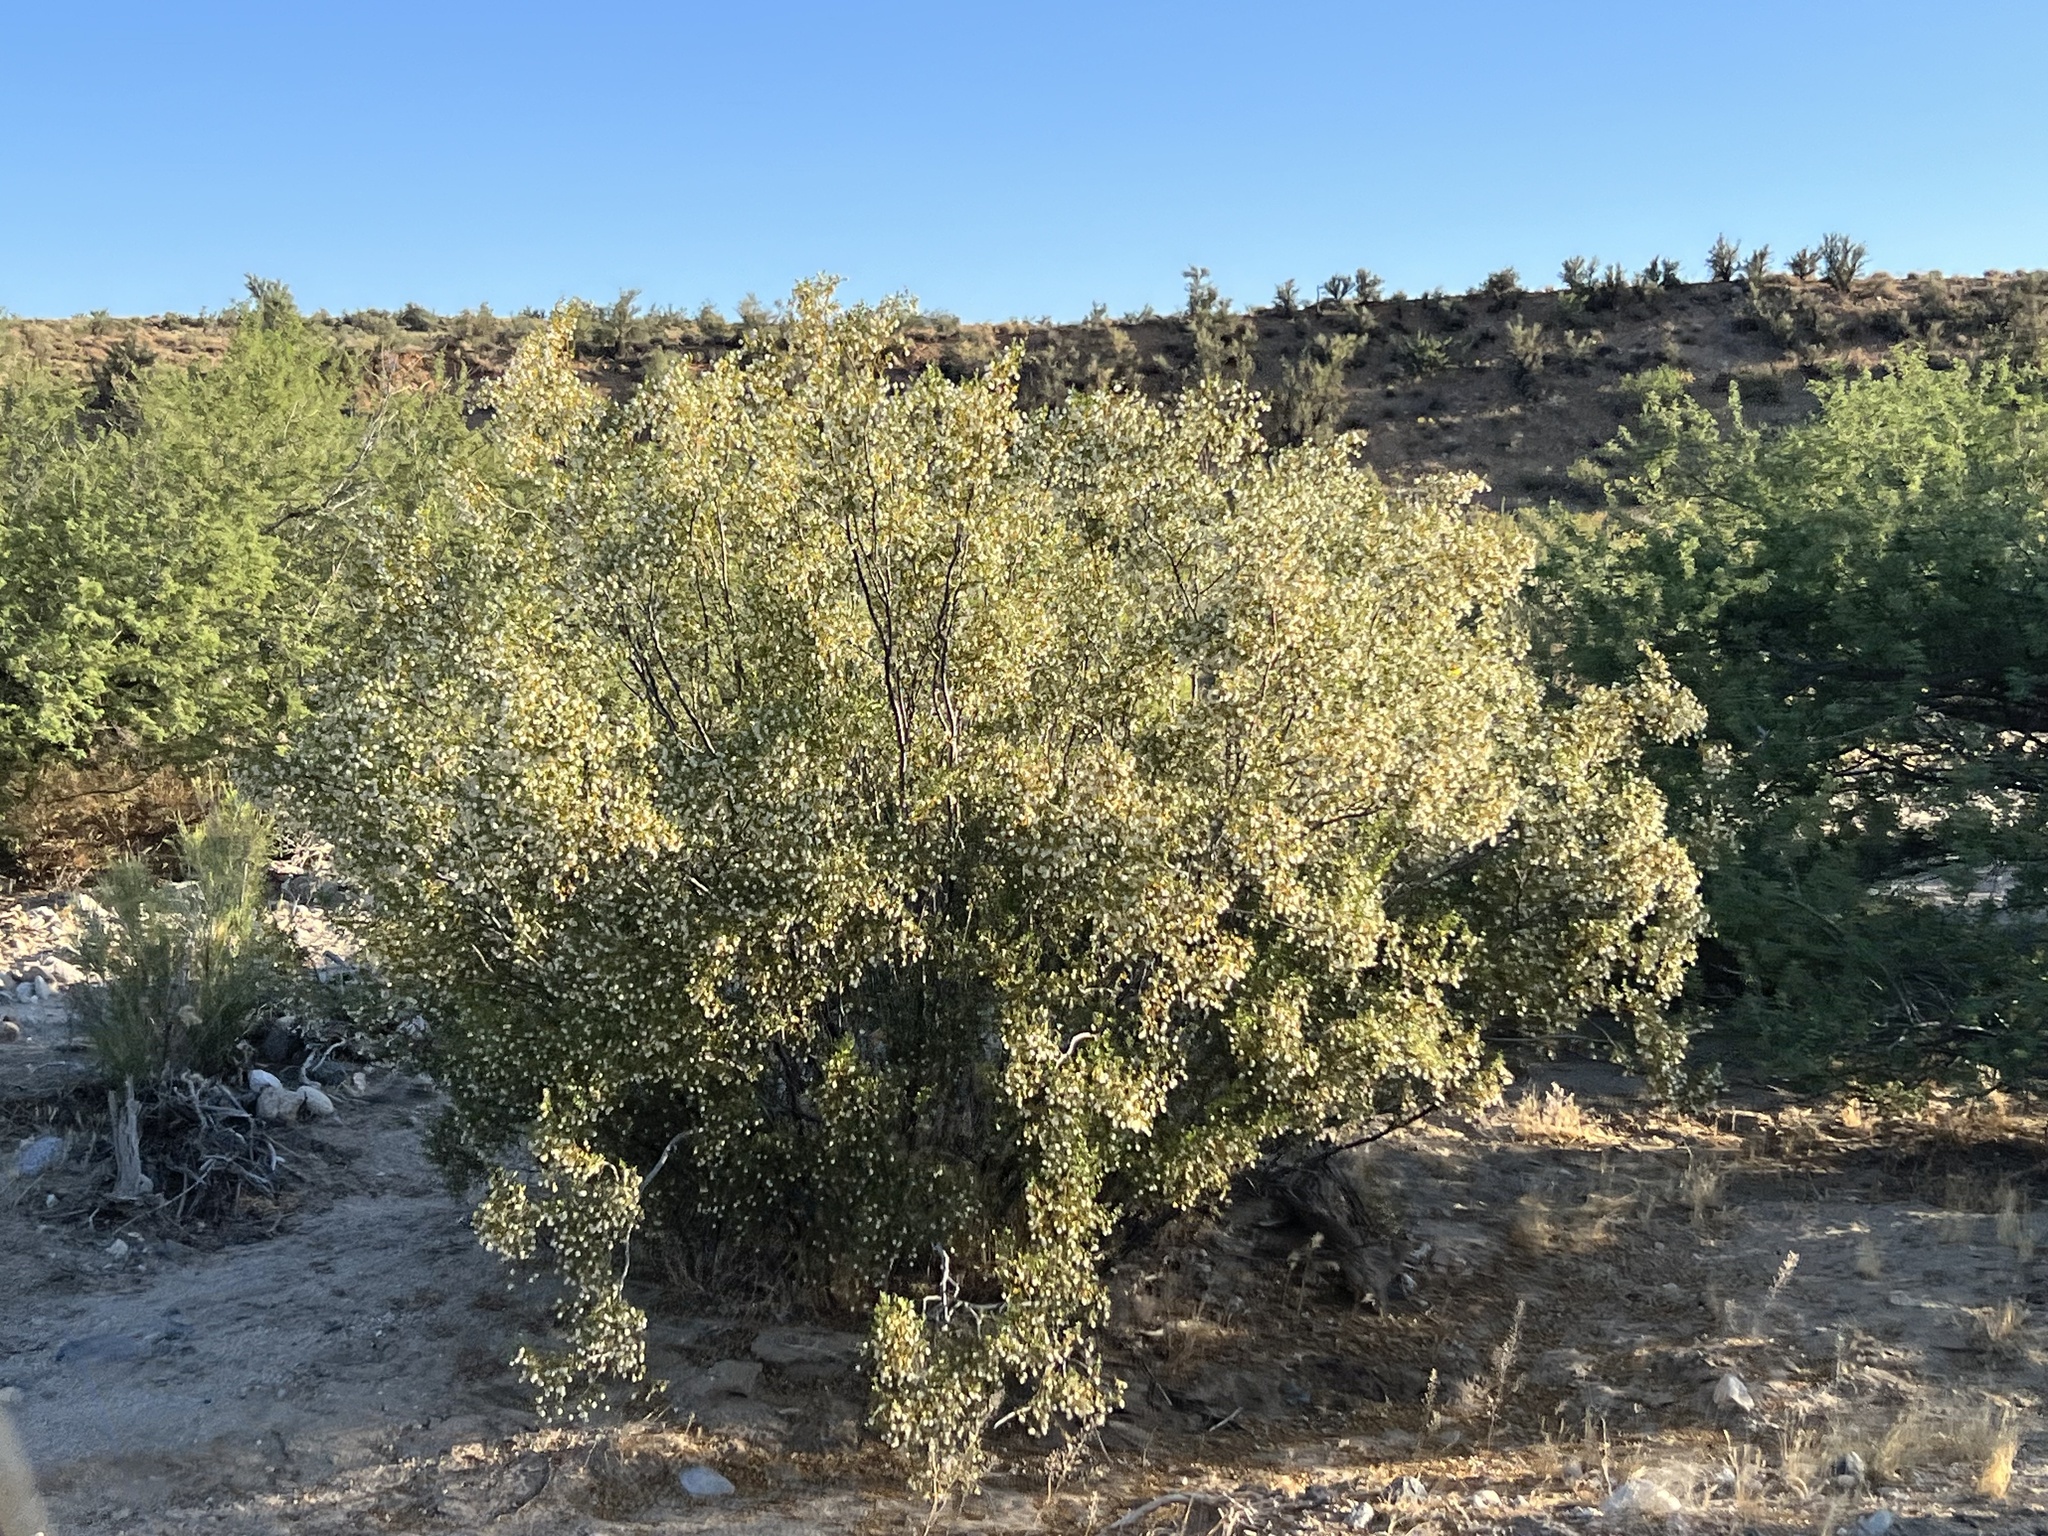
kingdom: Plantae
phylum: Tracheophyta
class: Magnoliopsida
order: Zygophyllales
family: Zygophyllaceae
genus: Larrea
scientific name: Larrea tridentata
